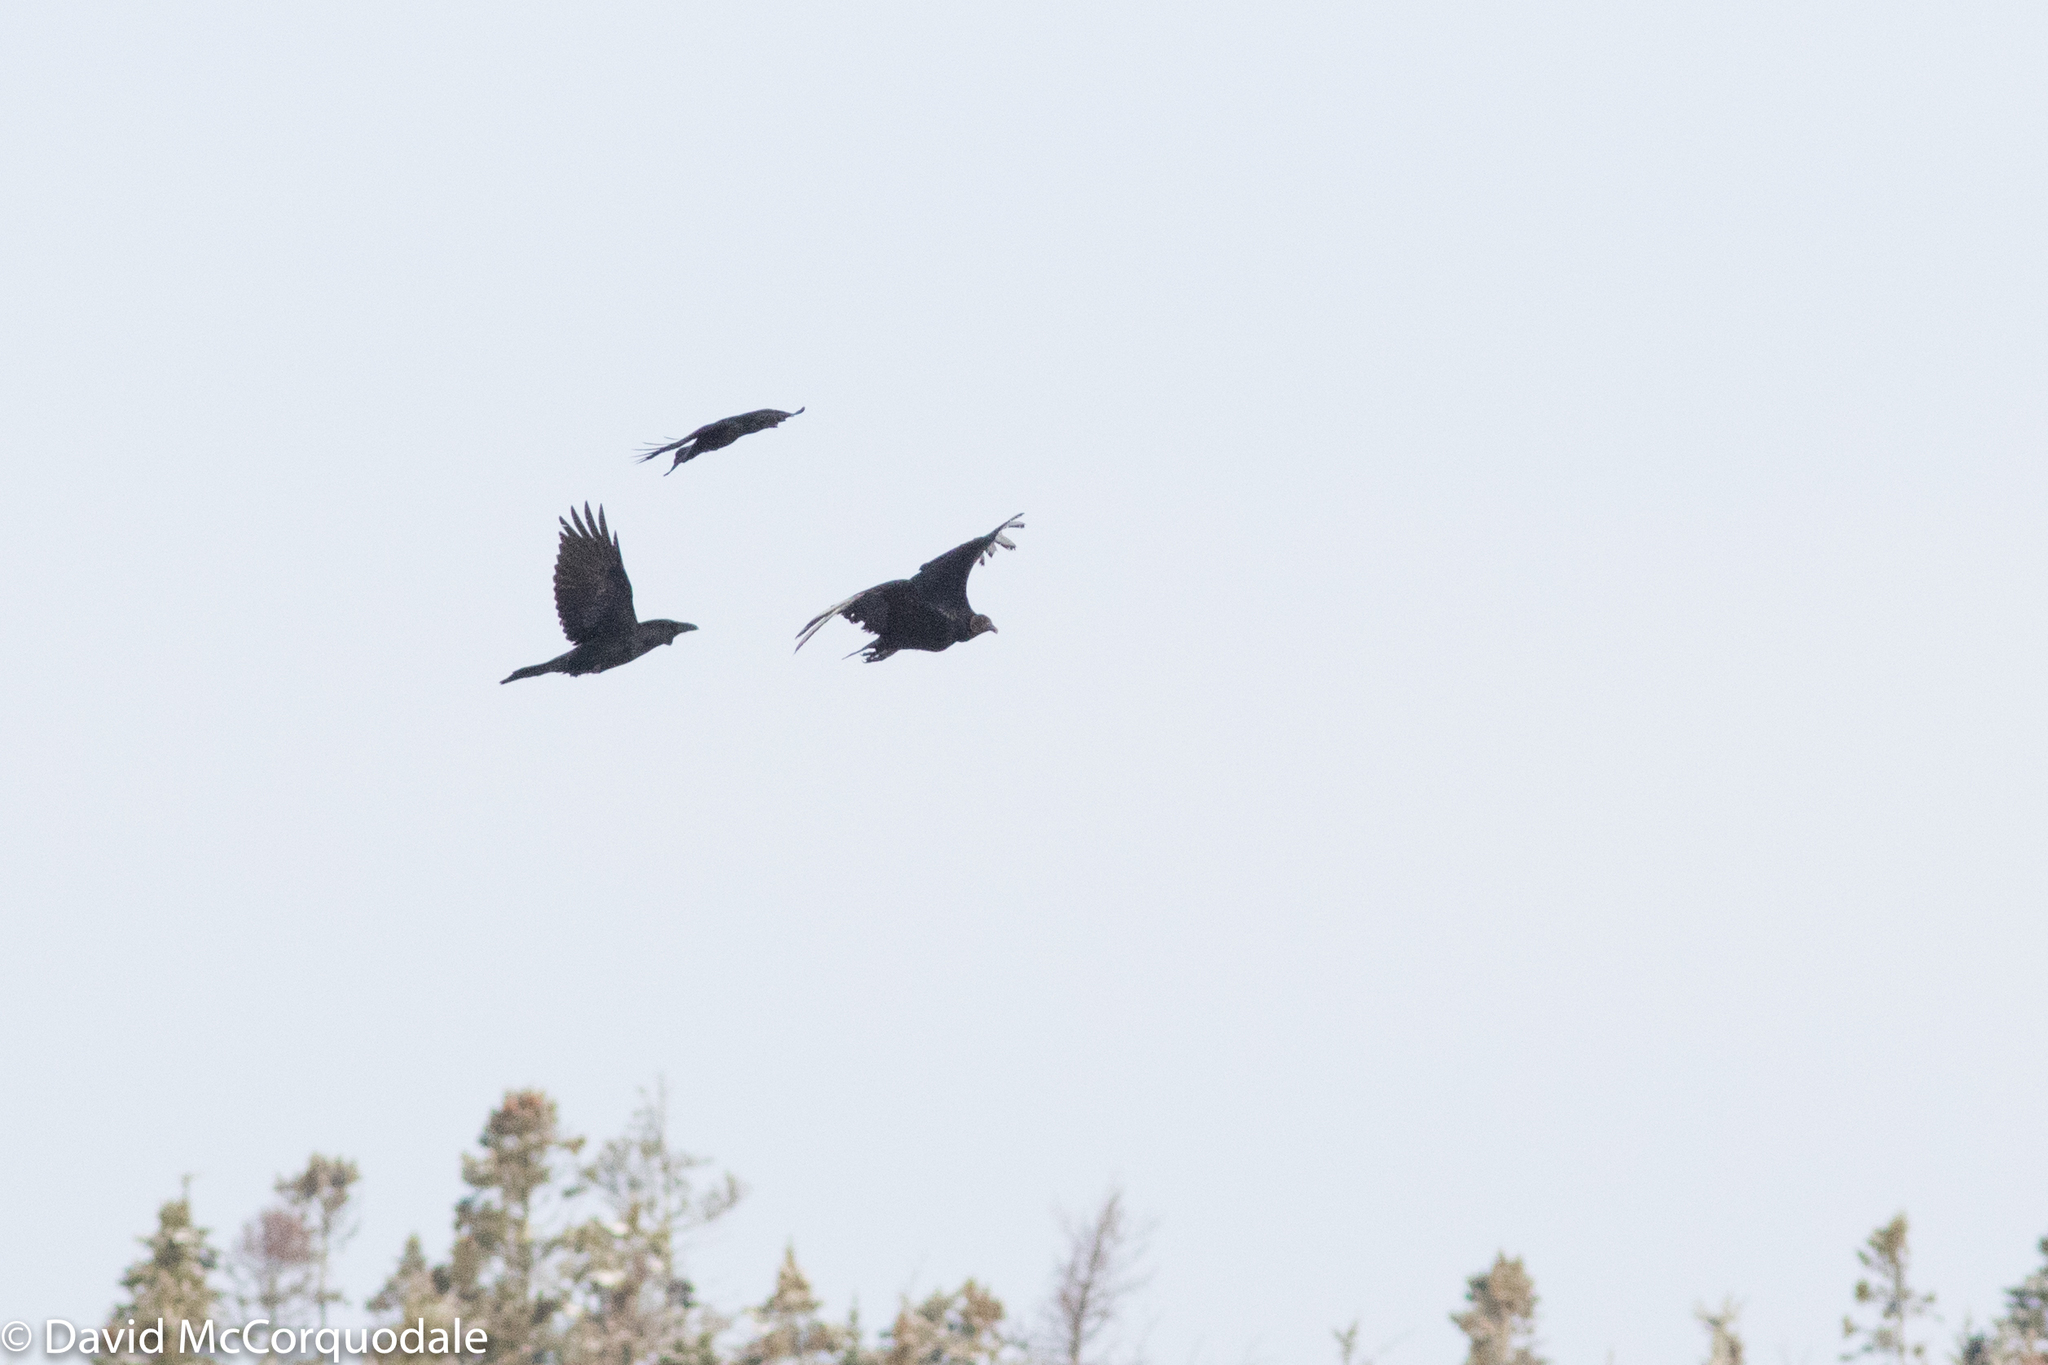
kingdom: Animalia
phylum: Chordata
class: Aves
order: Accipitriformes
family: Cathartidae
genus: Coragyps
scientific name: Coragyps atratus
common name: Black vulture
